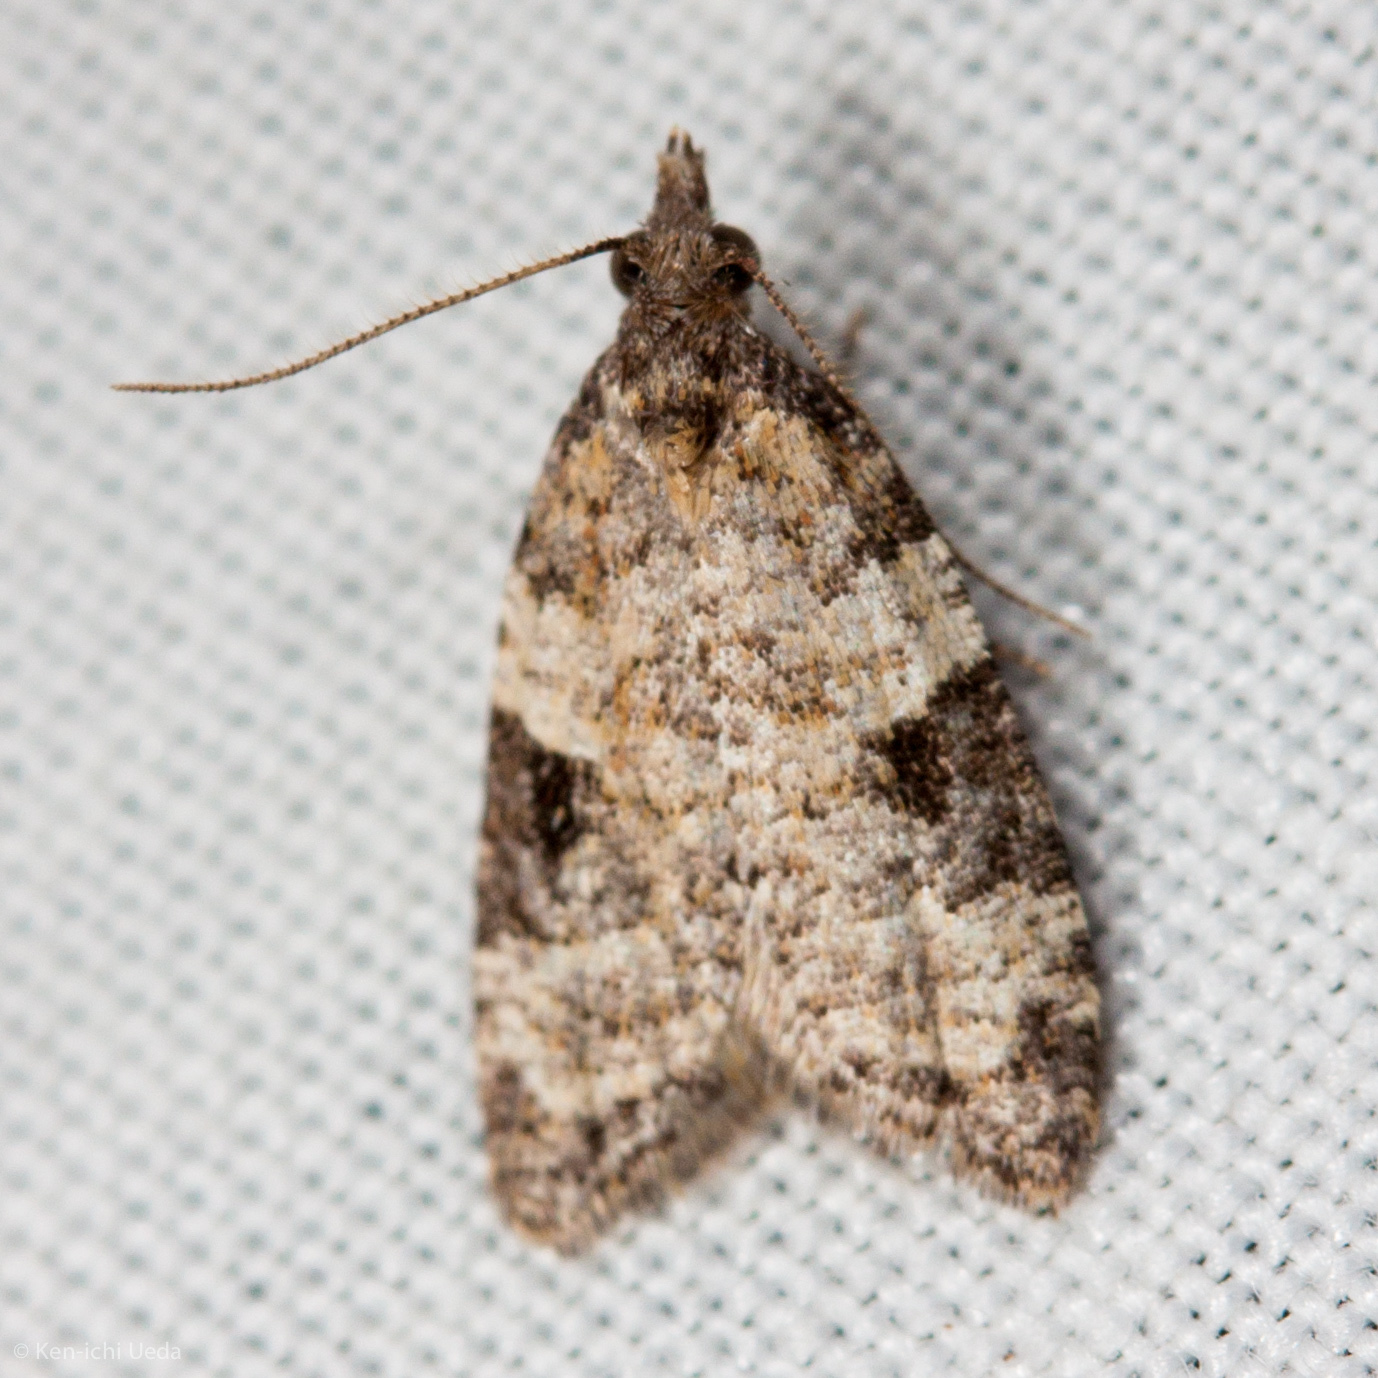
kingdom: Animalia
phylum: Arthropoda
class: Insecta
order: Lepidoptera
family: Tortricidae
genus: Anopina
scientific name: Anopina triangulana
